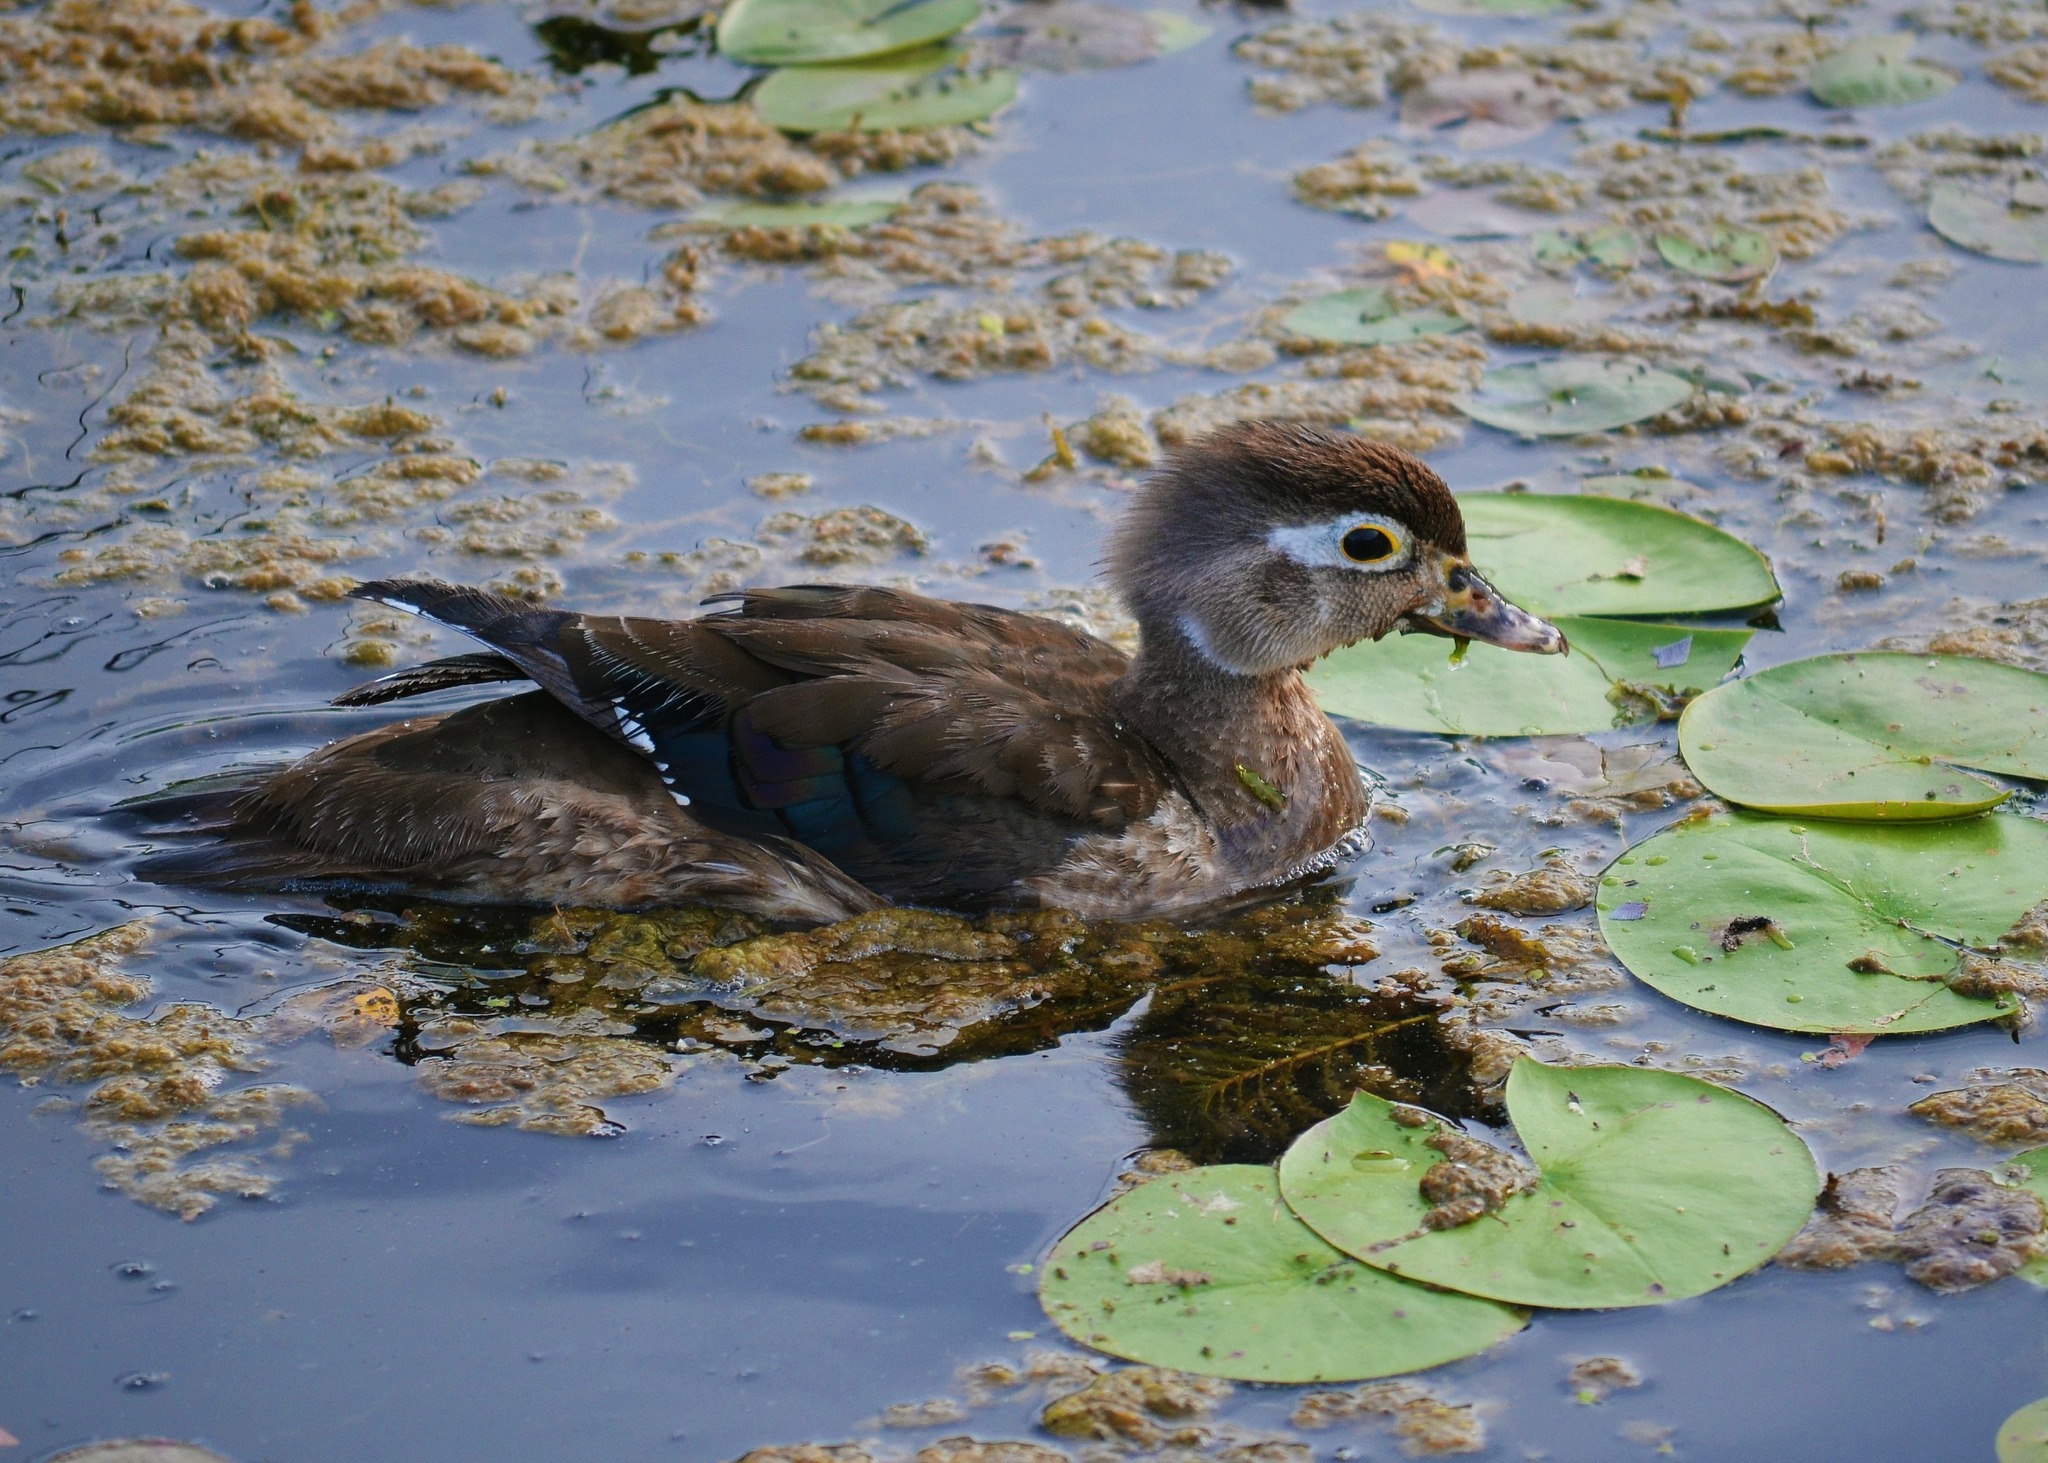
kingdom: Animalia
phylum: Chordata
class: Aves
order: Anseriformes
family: Anatidae
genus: Aix
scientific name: Aix sponsa
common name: Wood duck
